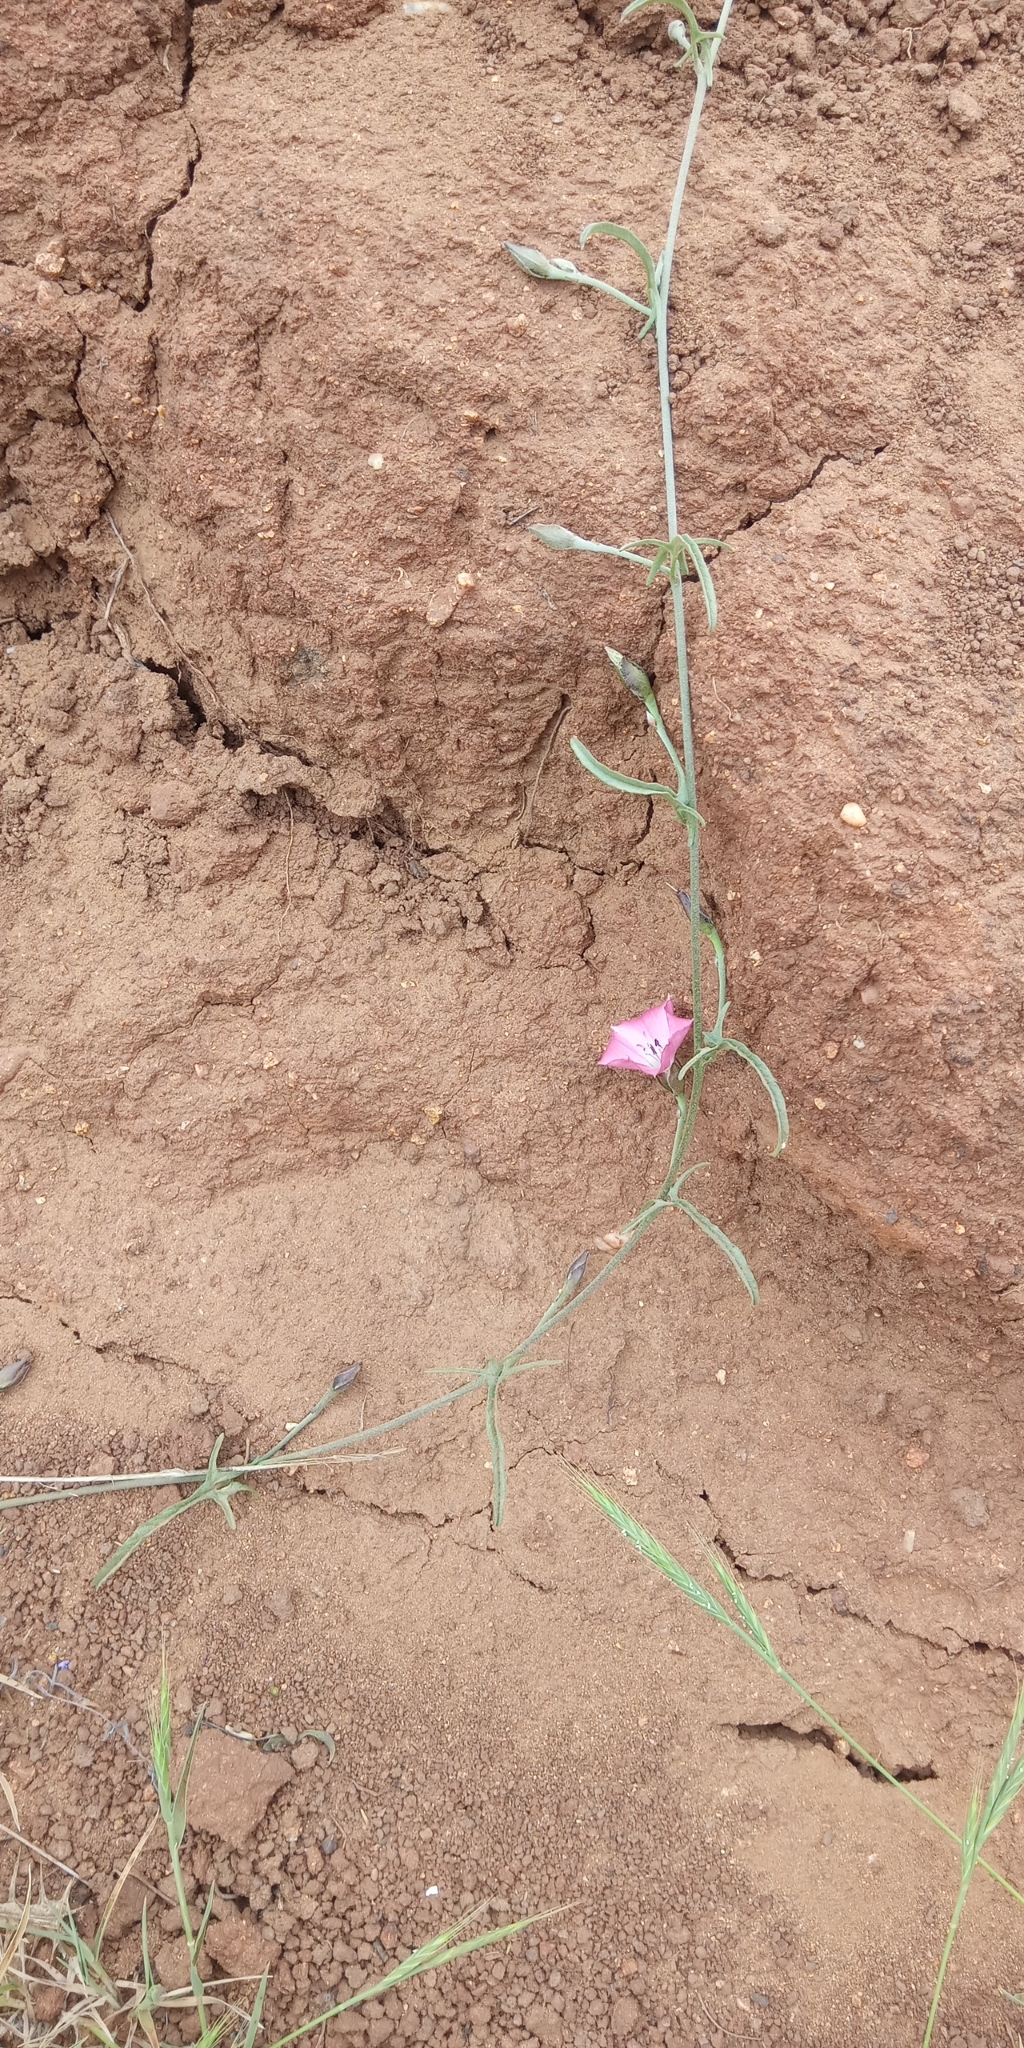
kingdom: Plantae
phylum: Tracheophyta
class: Magnoliopsida
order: Solanales
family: Convolvulaceae
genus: Convolvulus
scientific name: Convolvulus chilensis
